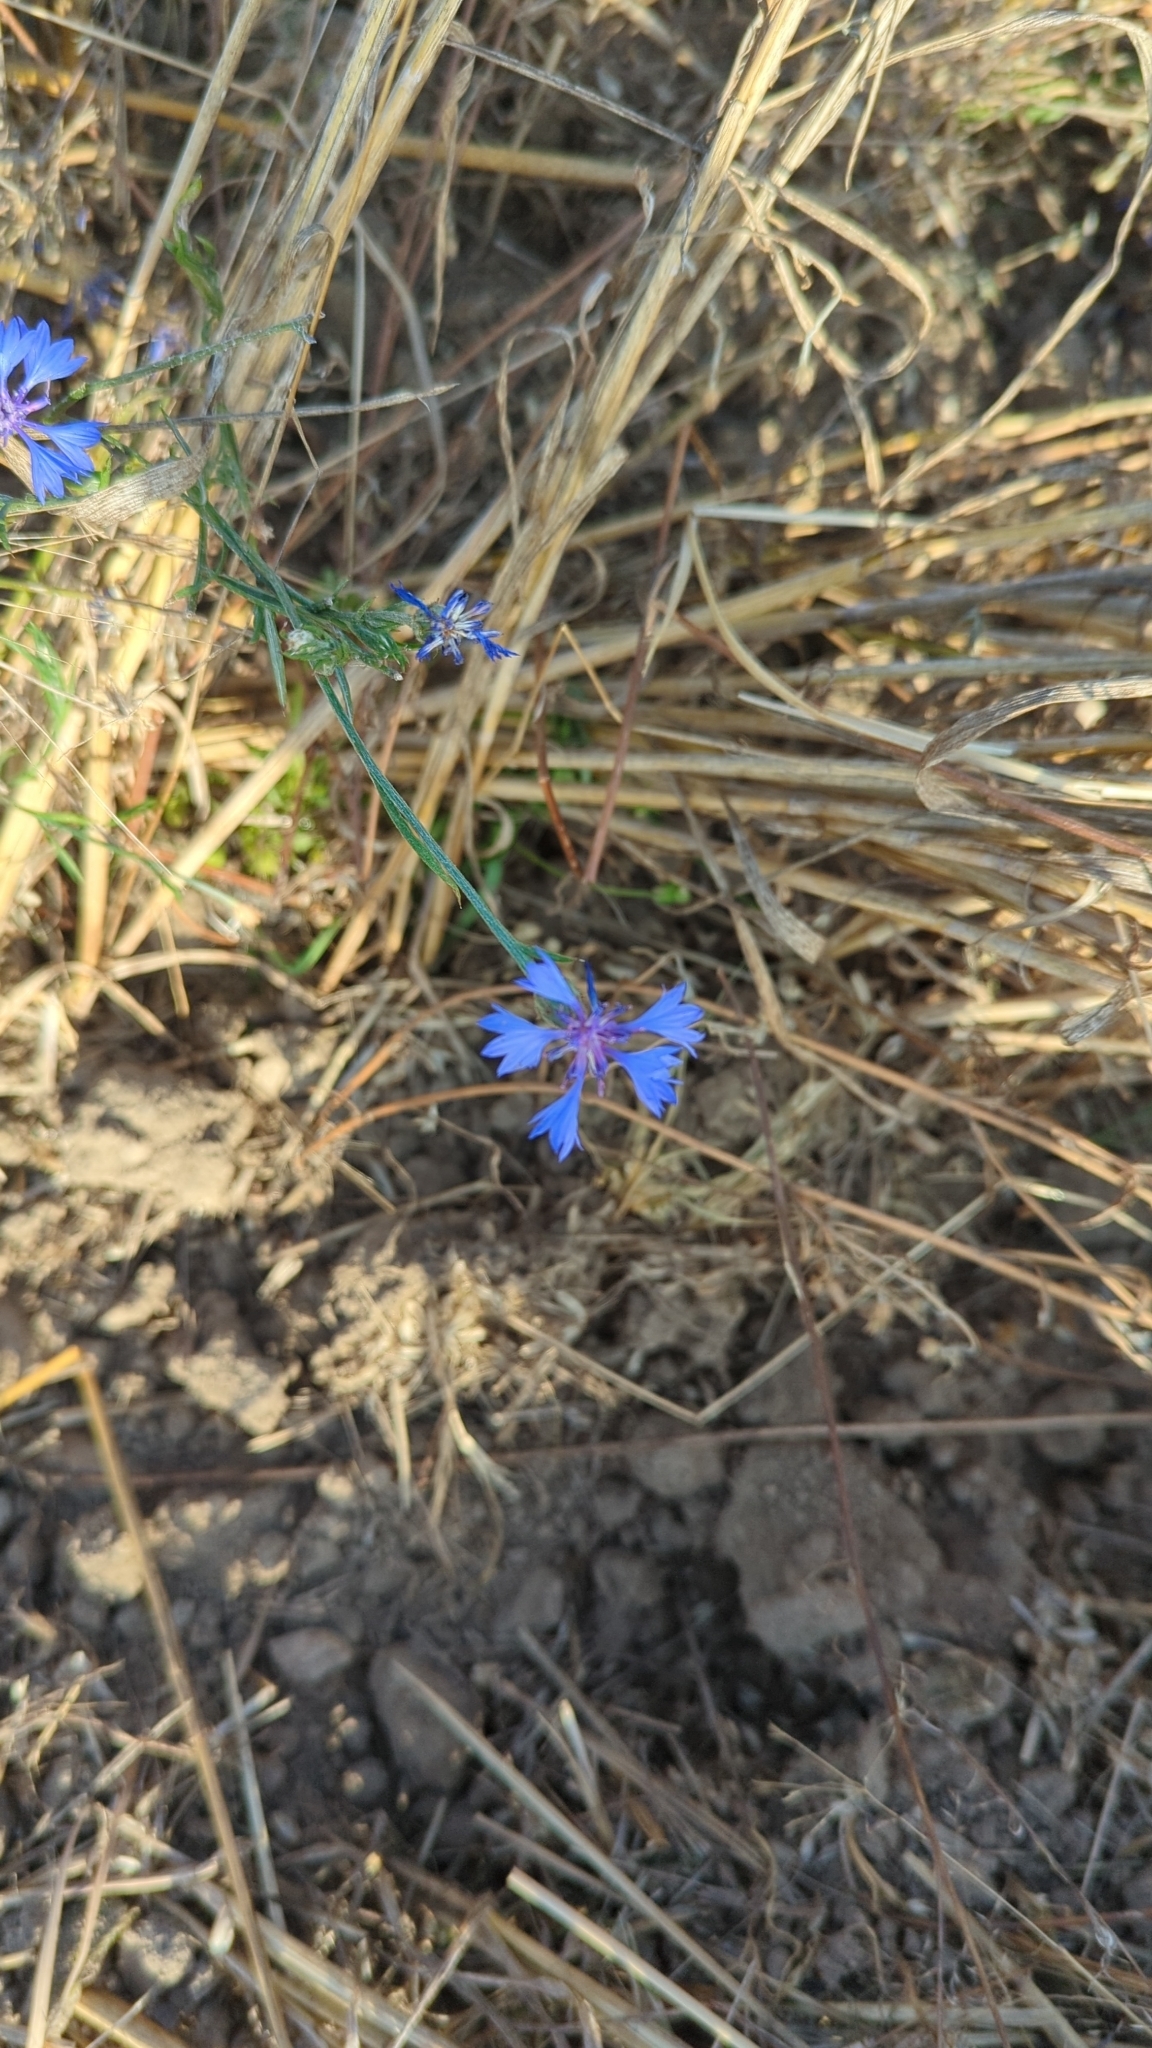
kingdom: Plantae
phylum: Tracheophyta
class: Magnoliopsida
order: Asterales
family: Asteraceae
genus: Centaurea
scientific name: Centaurea cyanus
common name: Cornflower
